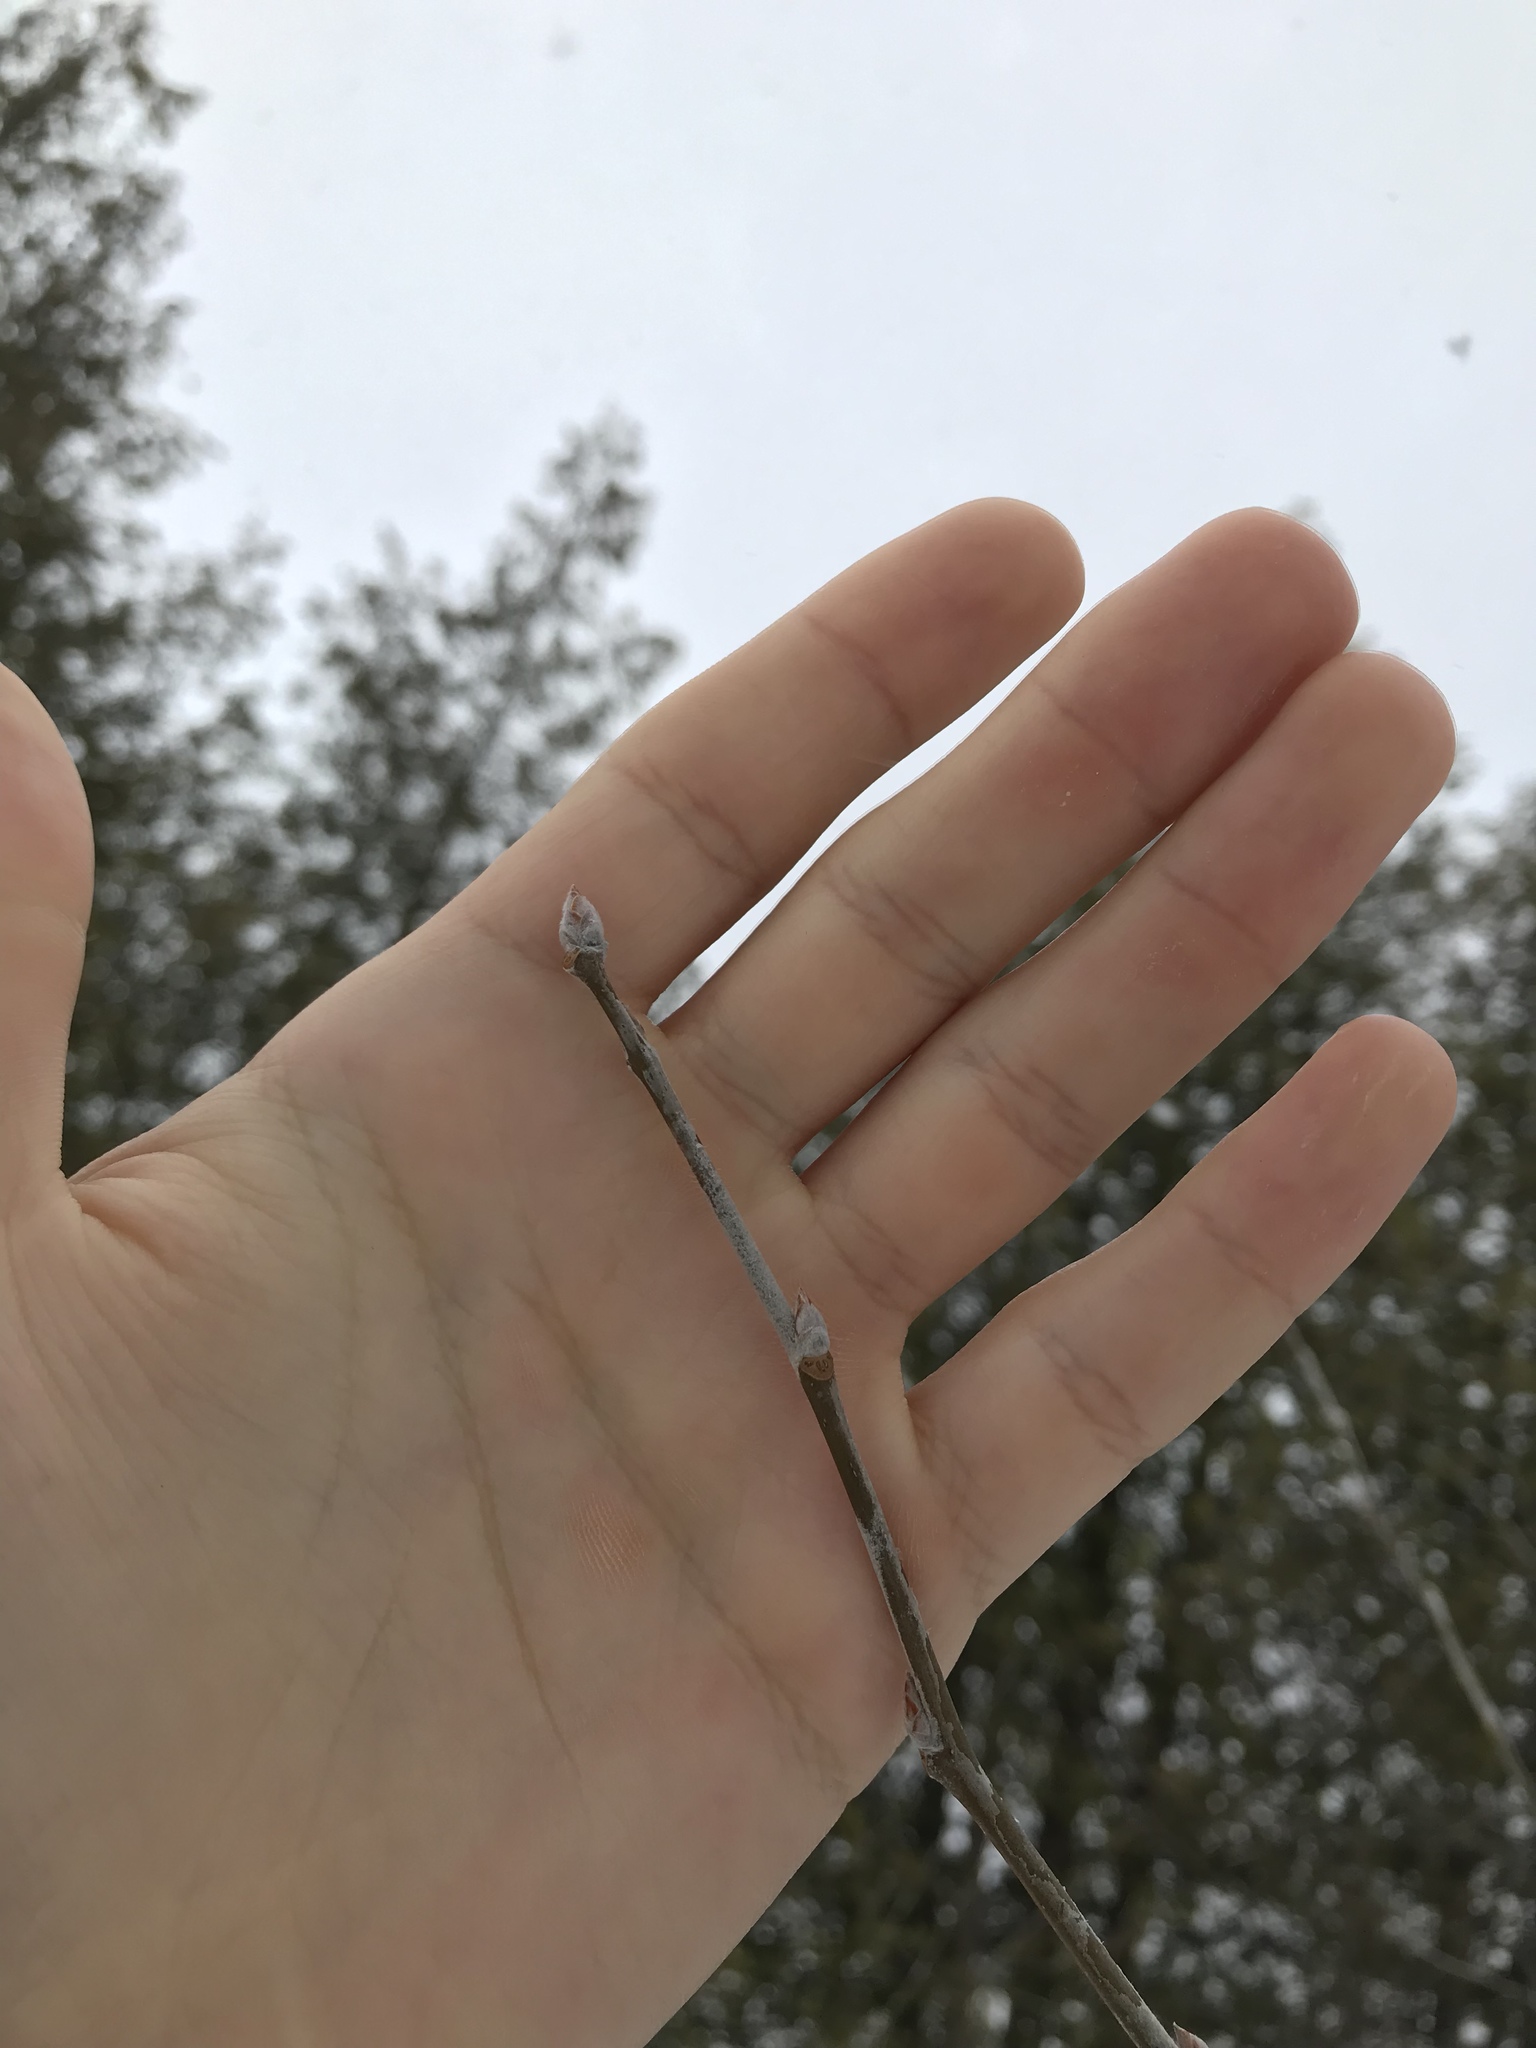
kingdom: Plantae
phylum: Tracheophyta
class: Magnoliopsida
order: Malpighiales
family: Salicaceae
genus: Populus
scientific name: Populus grandidentata
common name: Bigtooth aspen
